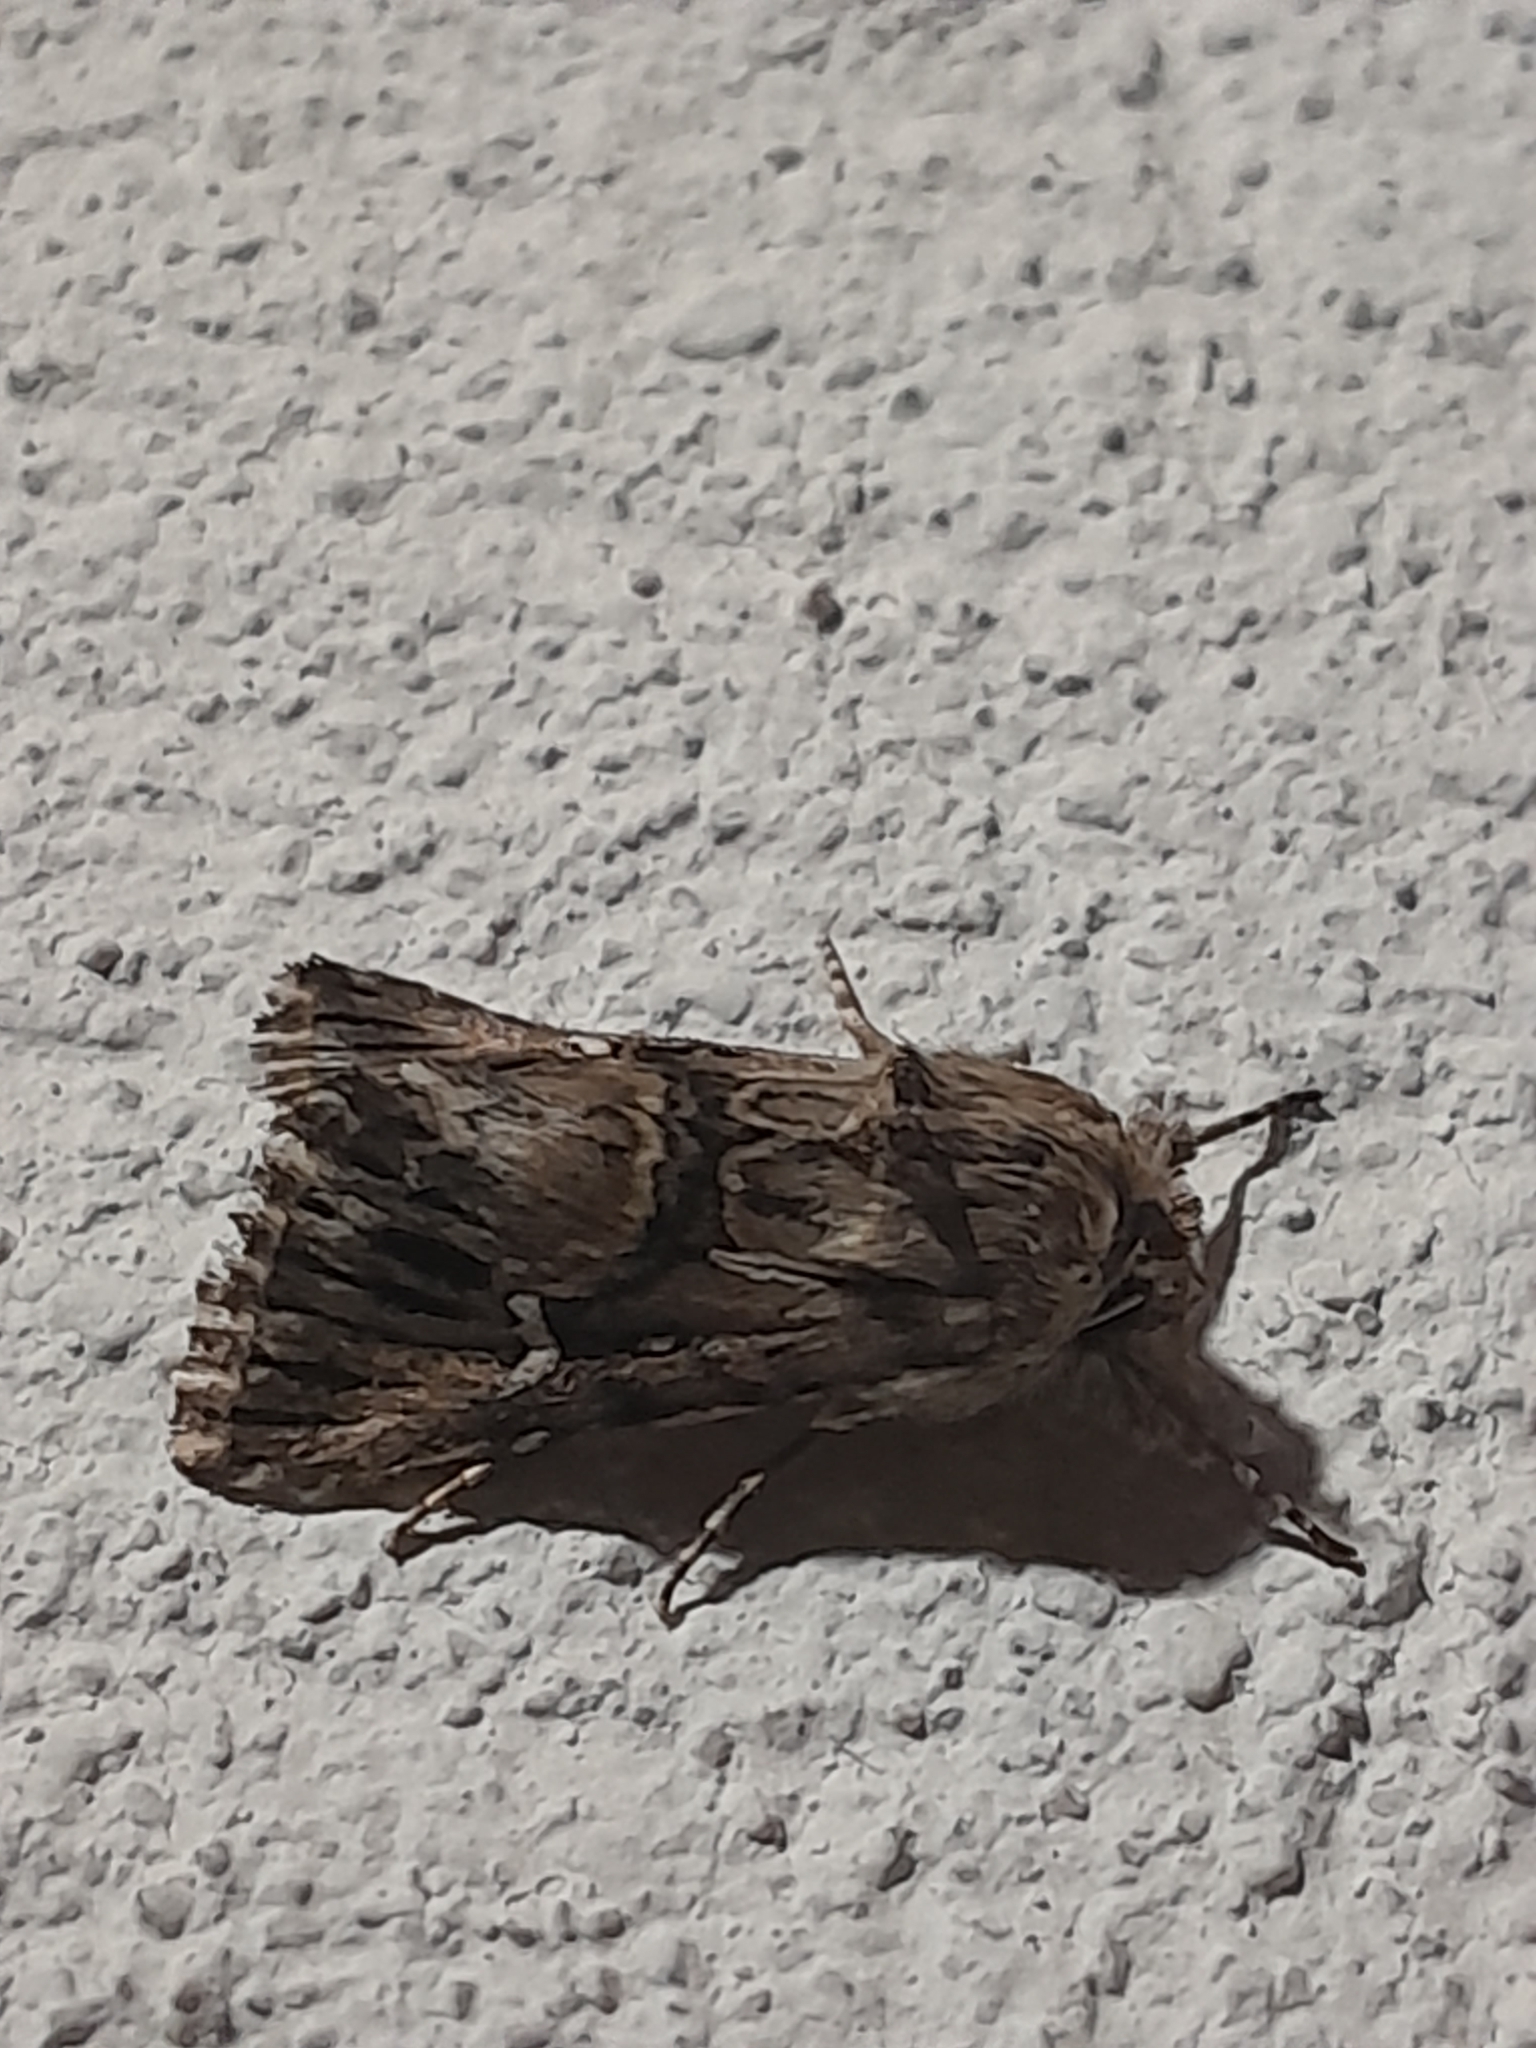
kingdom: Animalia
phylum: Arthropoda
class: Insecta
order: Lepidoptera
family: Noctuidae
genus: Calophasia
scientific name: Calophasia lunula
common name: Toadflax brocade
